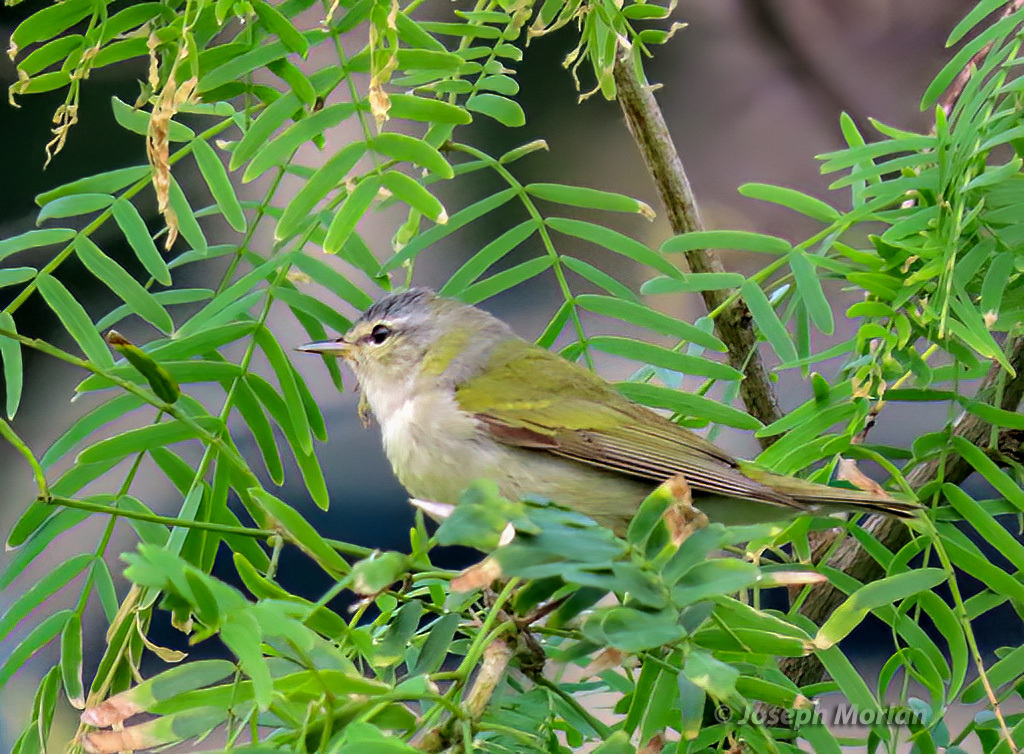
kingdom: Animalia
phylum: Chordata
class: Aves
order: Passeriformes
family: Parulidae
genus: Leiothlypis
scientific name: Leiothlypis peregrina
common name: Tennessee warbler
